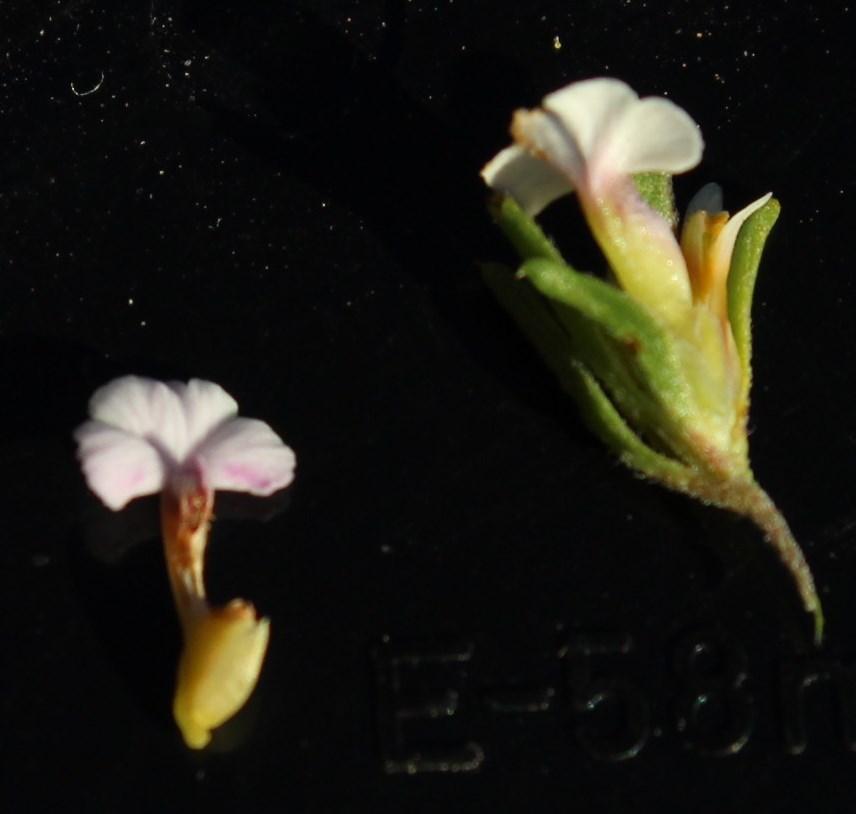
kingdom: Plantae
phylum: Tracheophyta
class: Magnoliopsida
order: Fabales
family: Polygalaceae
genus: Muraltia
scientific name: Muraltia lancifolia
